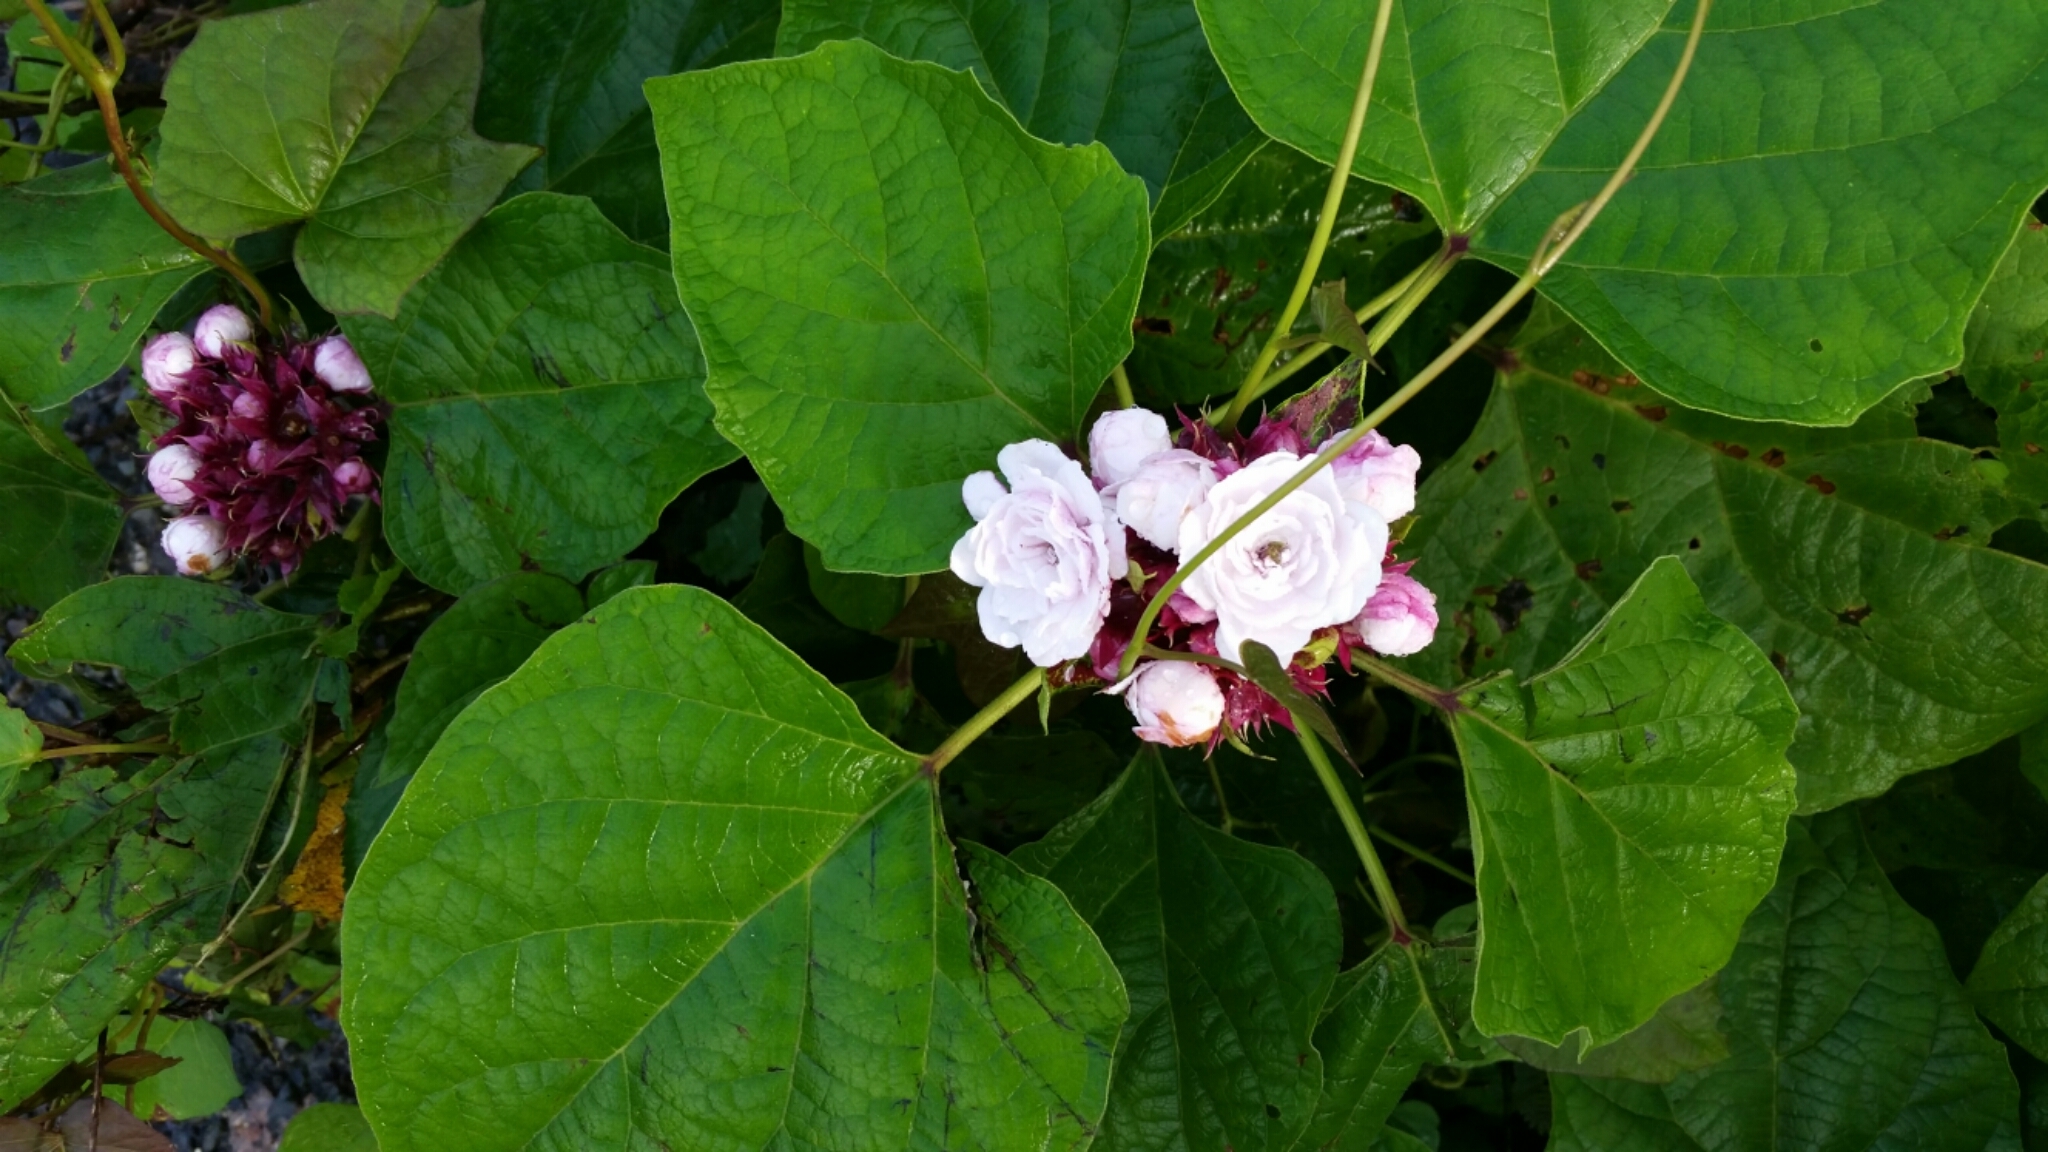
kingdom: Plantae
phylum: Tracheophyta
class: Magnoliopsida
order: Lamiales
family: Lamiaceae
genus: Clerodendrum
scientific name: Clerodendrum chinense
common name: Stickbush
